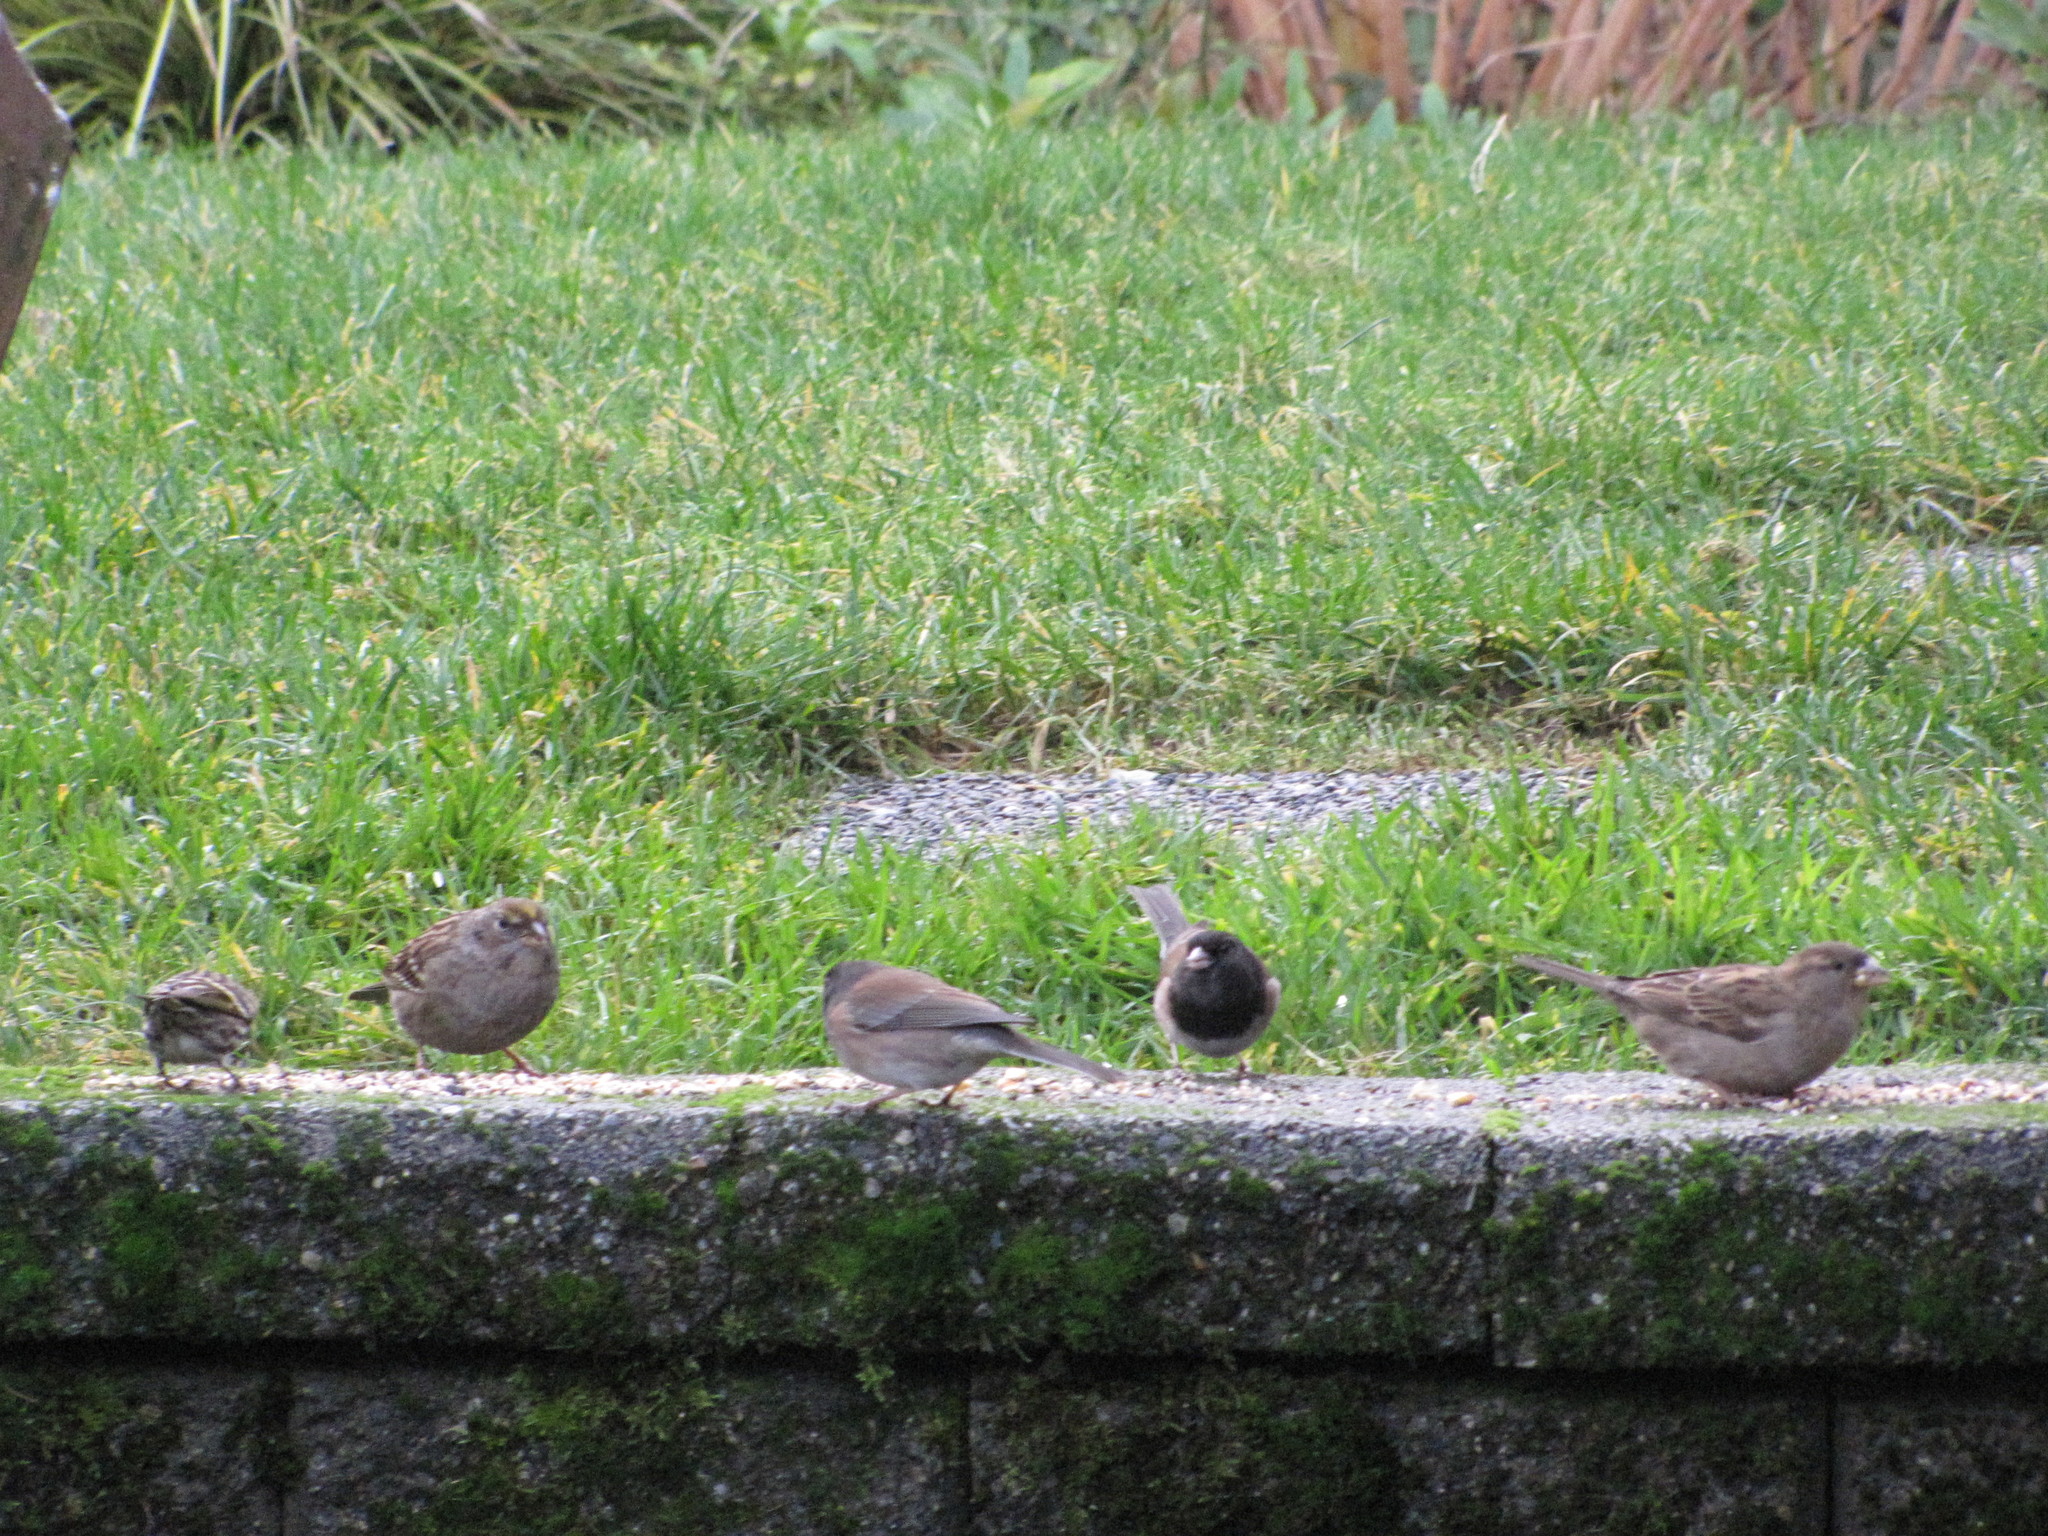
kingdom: Animalia
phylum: Chordata
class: Aves
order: Passeriformes
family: Passeridae
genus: Passer
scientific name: Passer domesticus
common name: House sparrow
